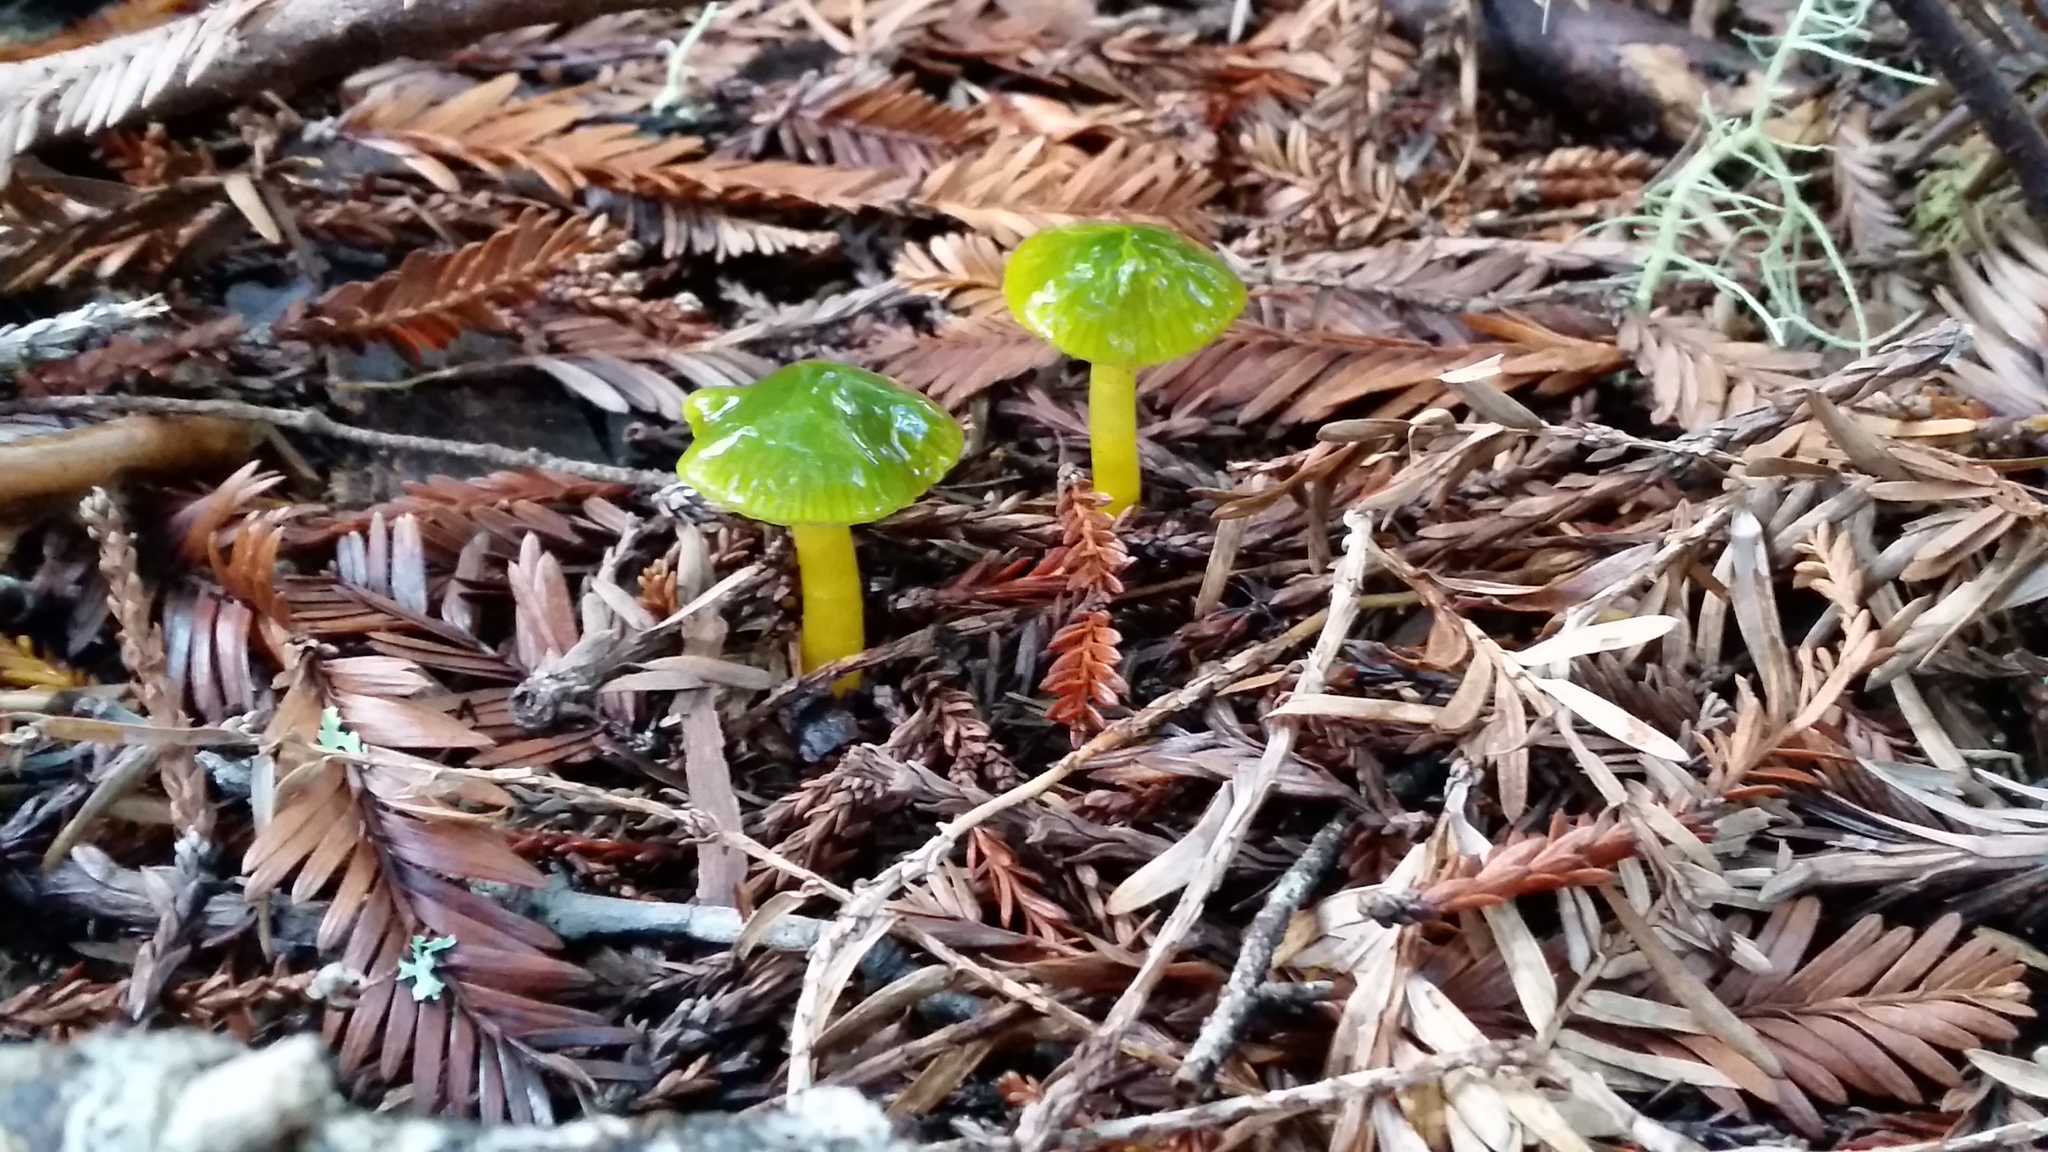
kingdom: Fungi
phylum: Basidiomycota
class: Agaricomycetes
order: Agaricales
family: Hygrophoraceae
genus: Gliophorus
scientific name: Gliophorus psittacinus
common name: Parrot wax-cap
